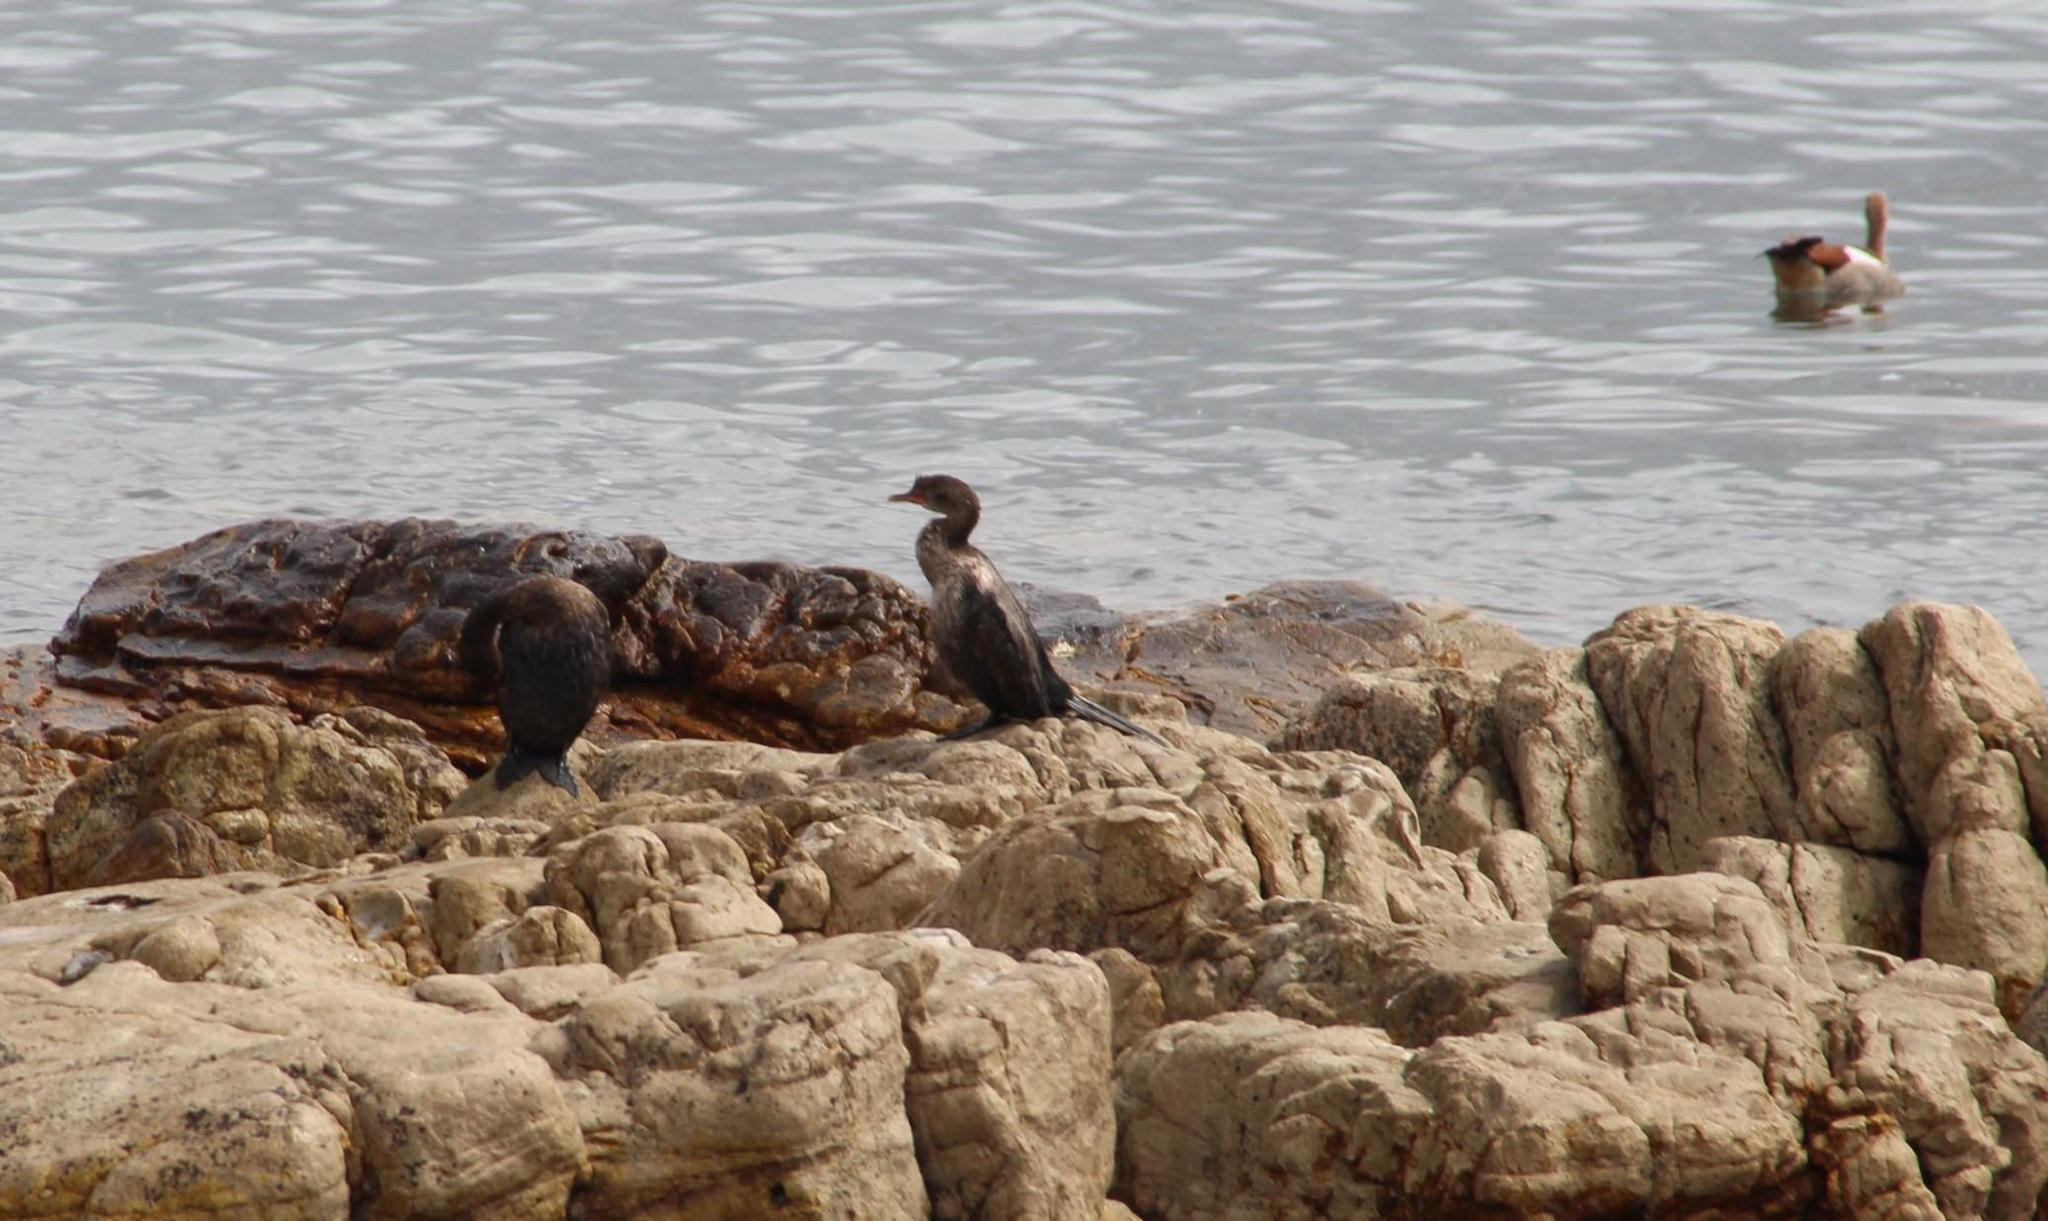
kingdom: Animalia
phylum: Chordata
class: Aves
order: Suliformes
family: Phalacrocoracidae
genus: Microcarbo
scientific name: Microcarbo coronatus
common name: Crowned cormorant
